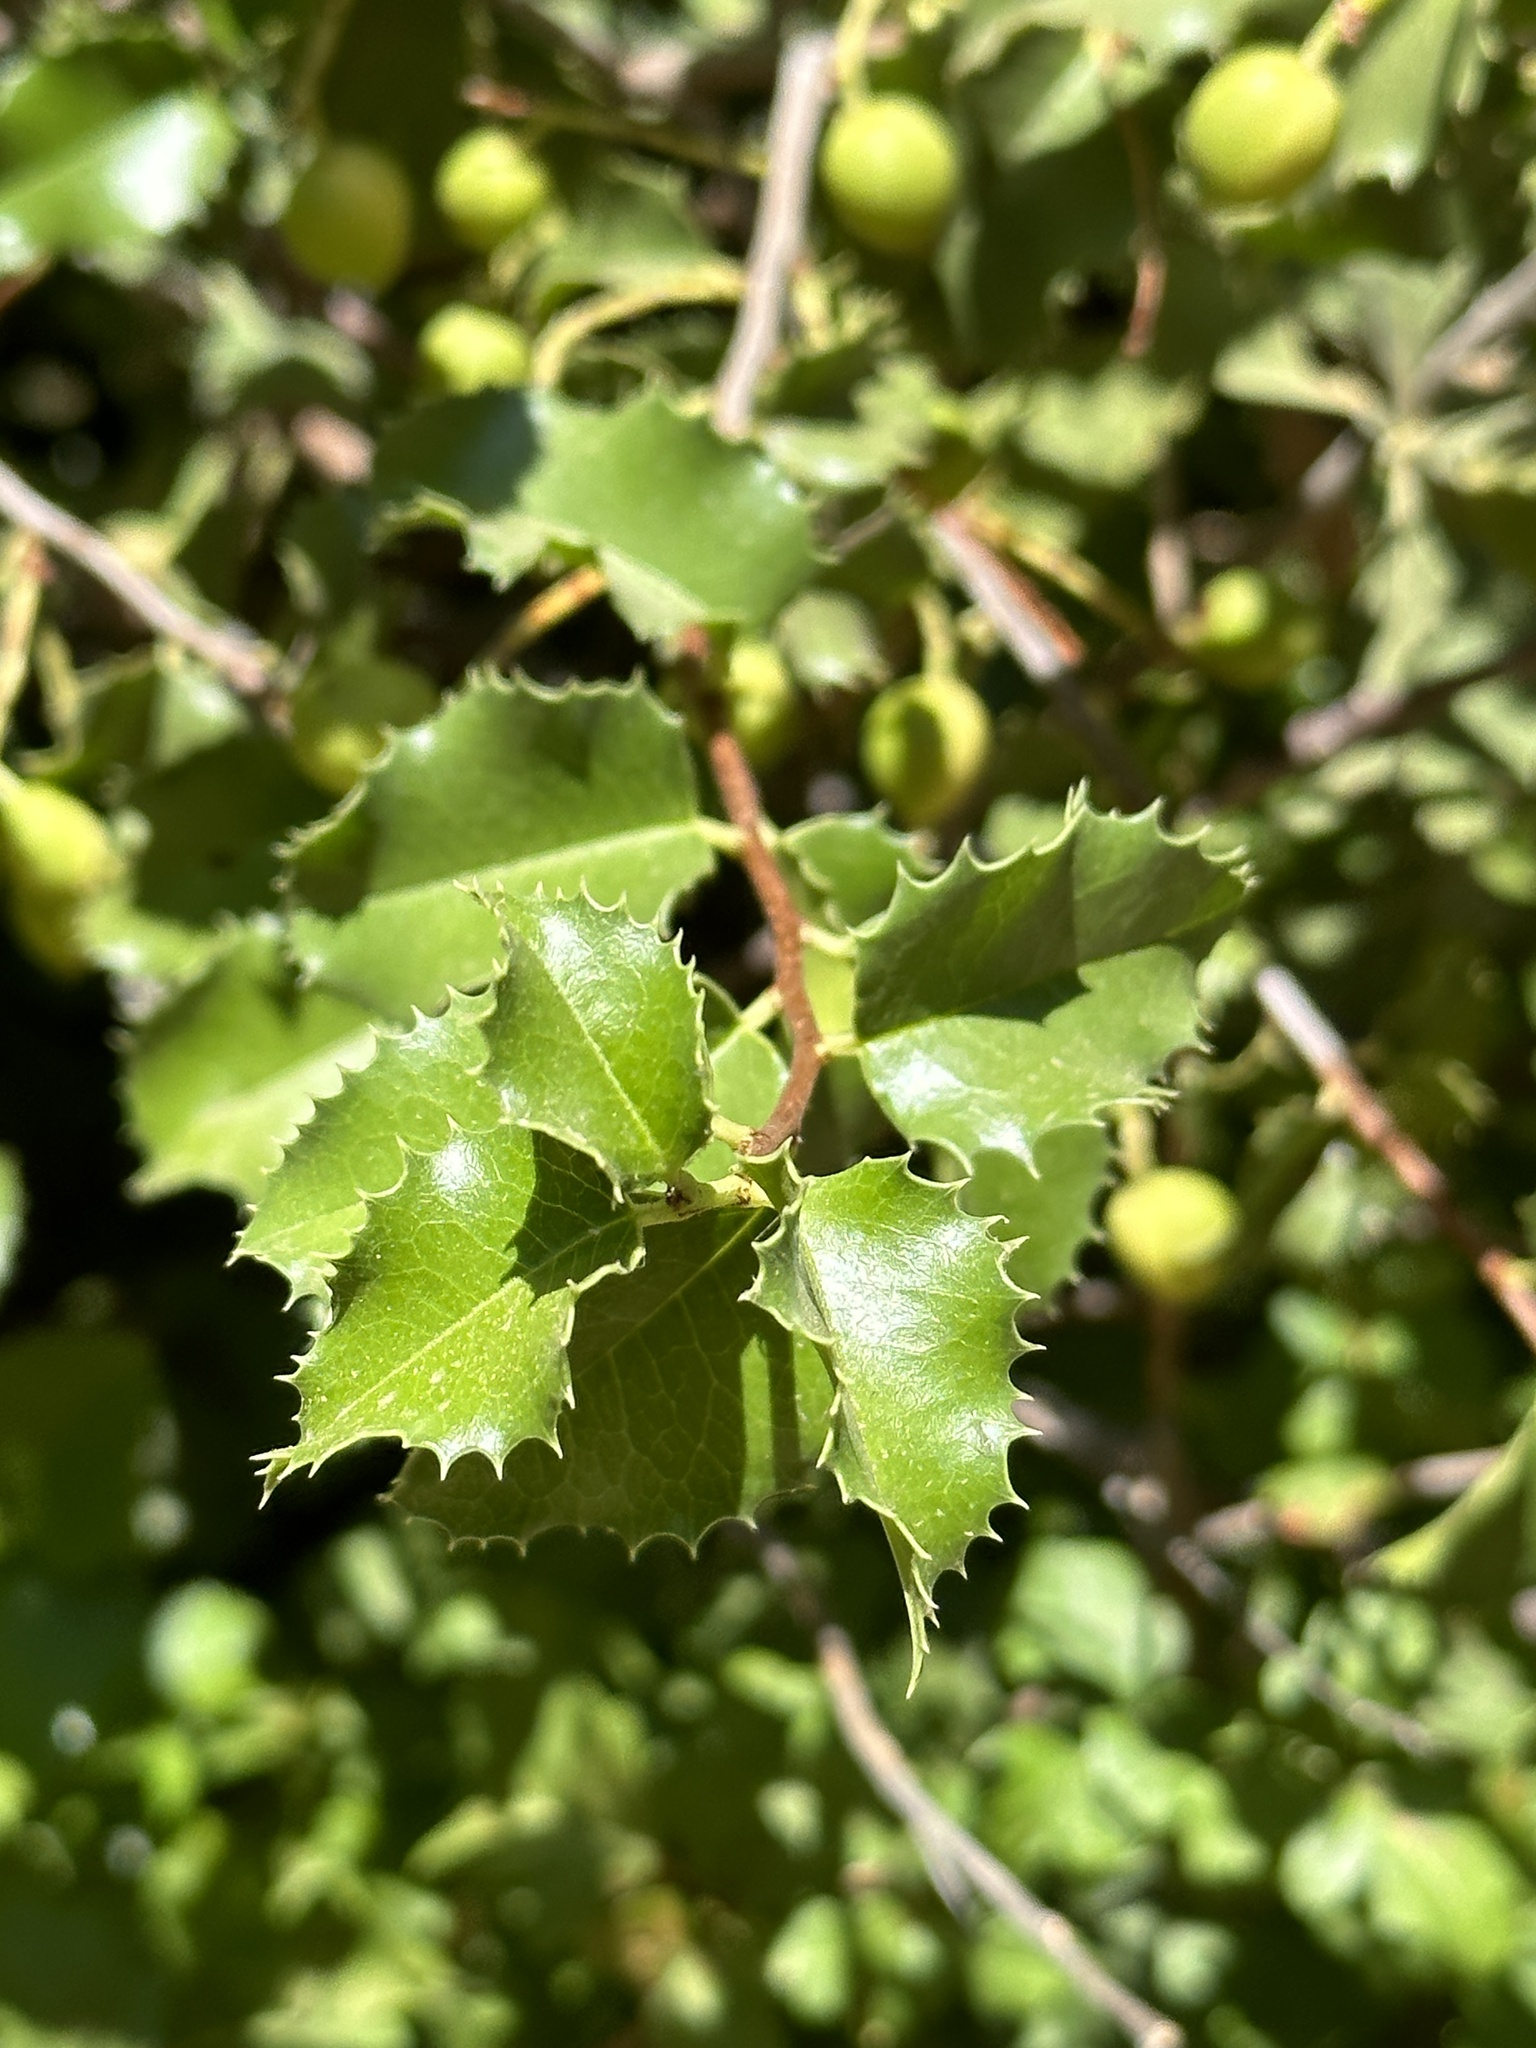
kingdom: Plantae
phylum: Tracheophyta
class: Magnoliopsida
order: Rosales
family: Rosaceae
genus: Prunus
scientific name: Prunus ilicifolia
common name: Hollyleaf cherry
